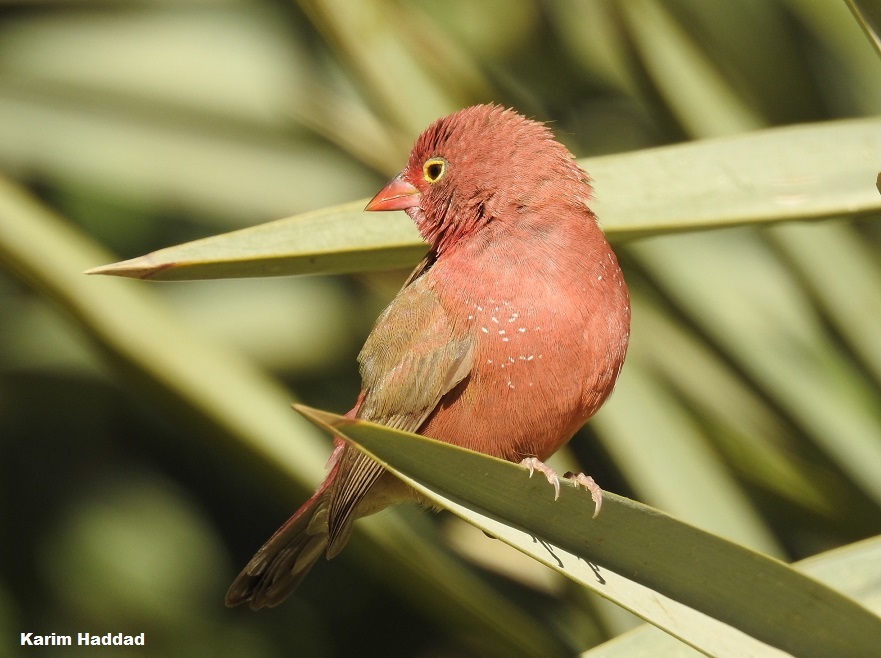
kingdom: Animalia
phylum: Chordata
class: Aves
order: Passeriformes
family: Estrildidae
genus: Lagonosticta
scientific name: Lagonosticta senegala
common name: Red-billed firefinch
